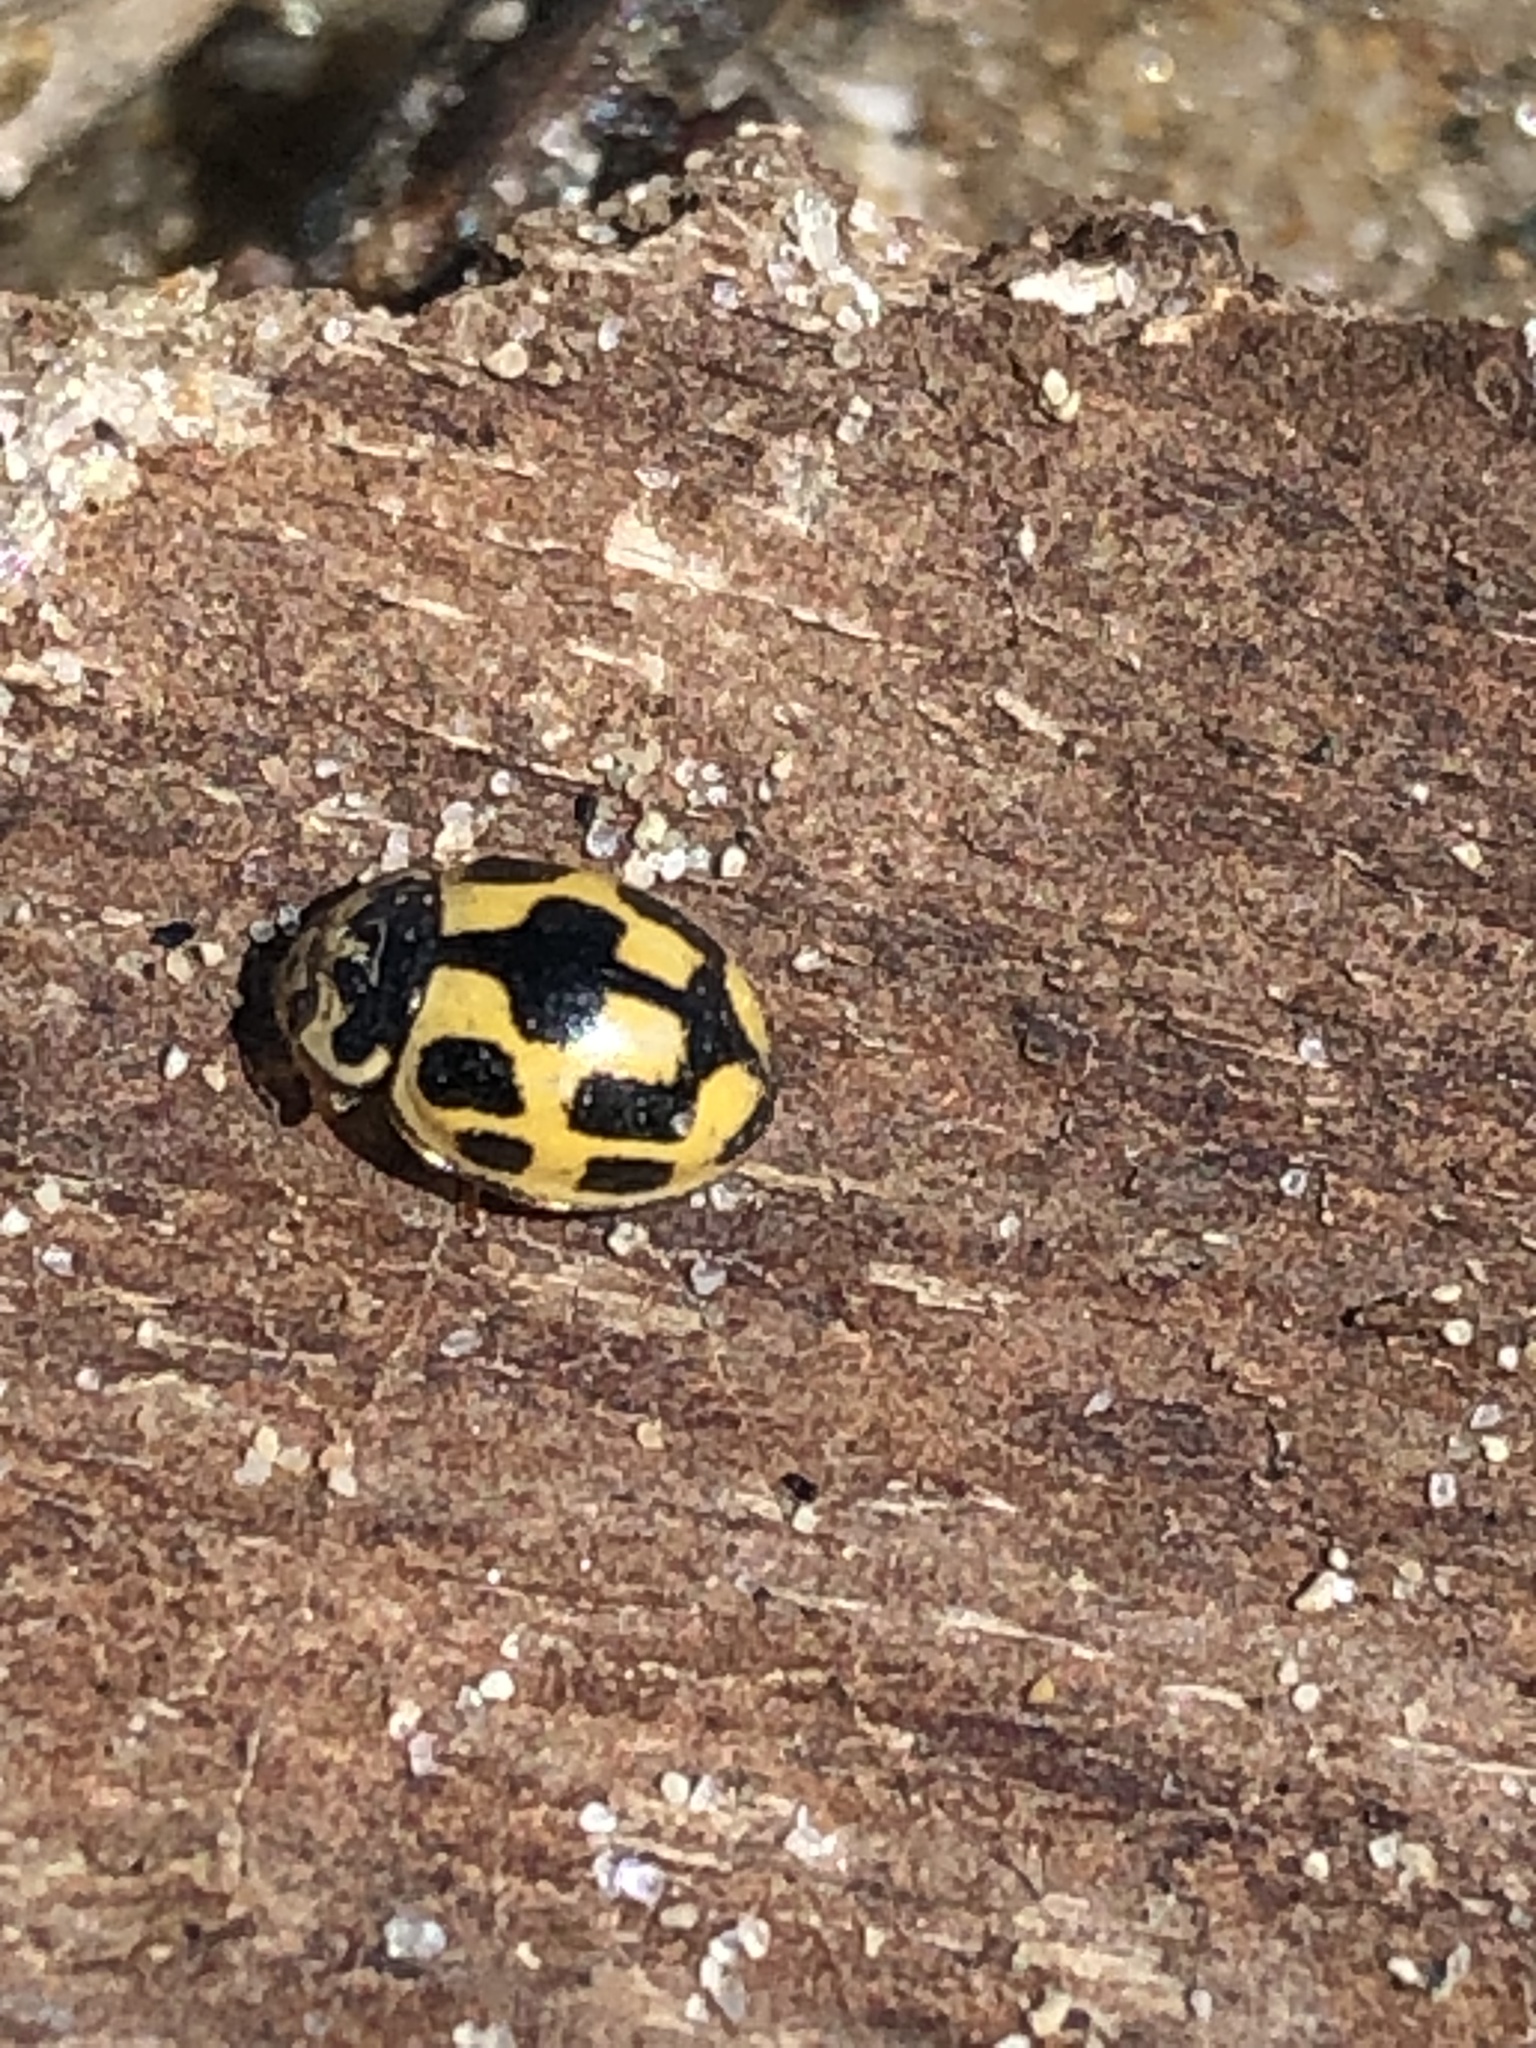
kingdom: Animalia
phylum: Arthropoda
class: Insecta
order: Coleoptera
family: Coccinellidae
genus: Propylaea
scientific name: Propylaea quatuordecimpunctata
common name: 14-spotted ladybird beetle
